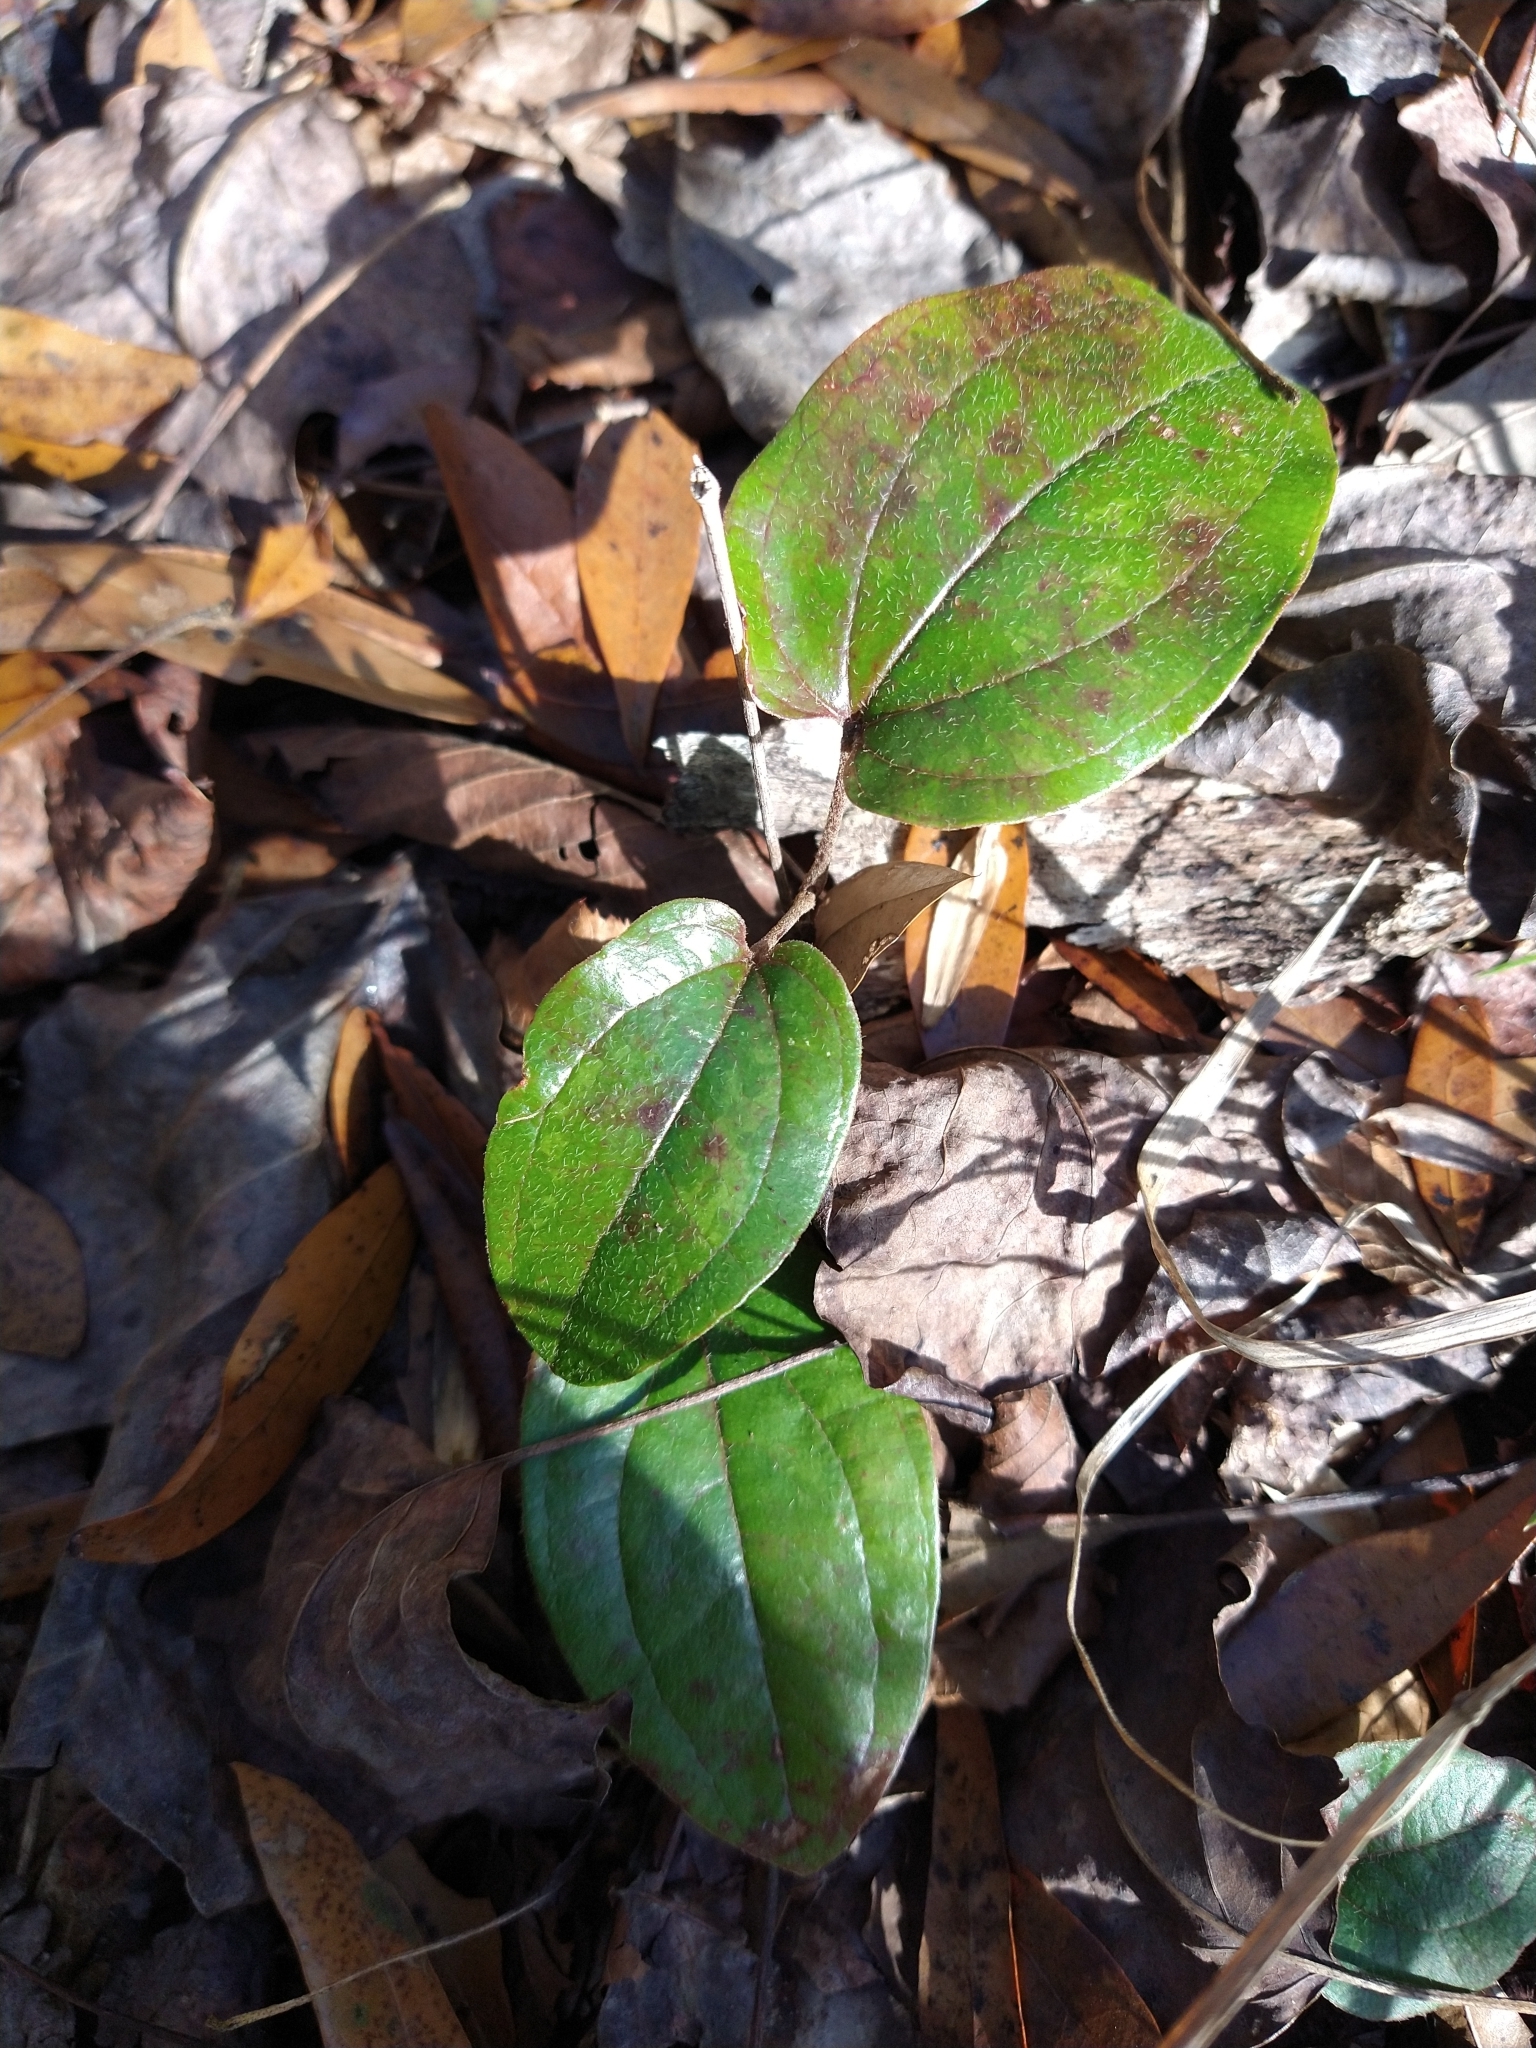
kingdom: Plantae
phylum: Tracheophyta
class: Liliopsida
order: Liliales
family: Smilacaceae
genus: Smilax
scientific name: Smilax pumila
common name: Sarsaparilla-vine
